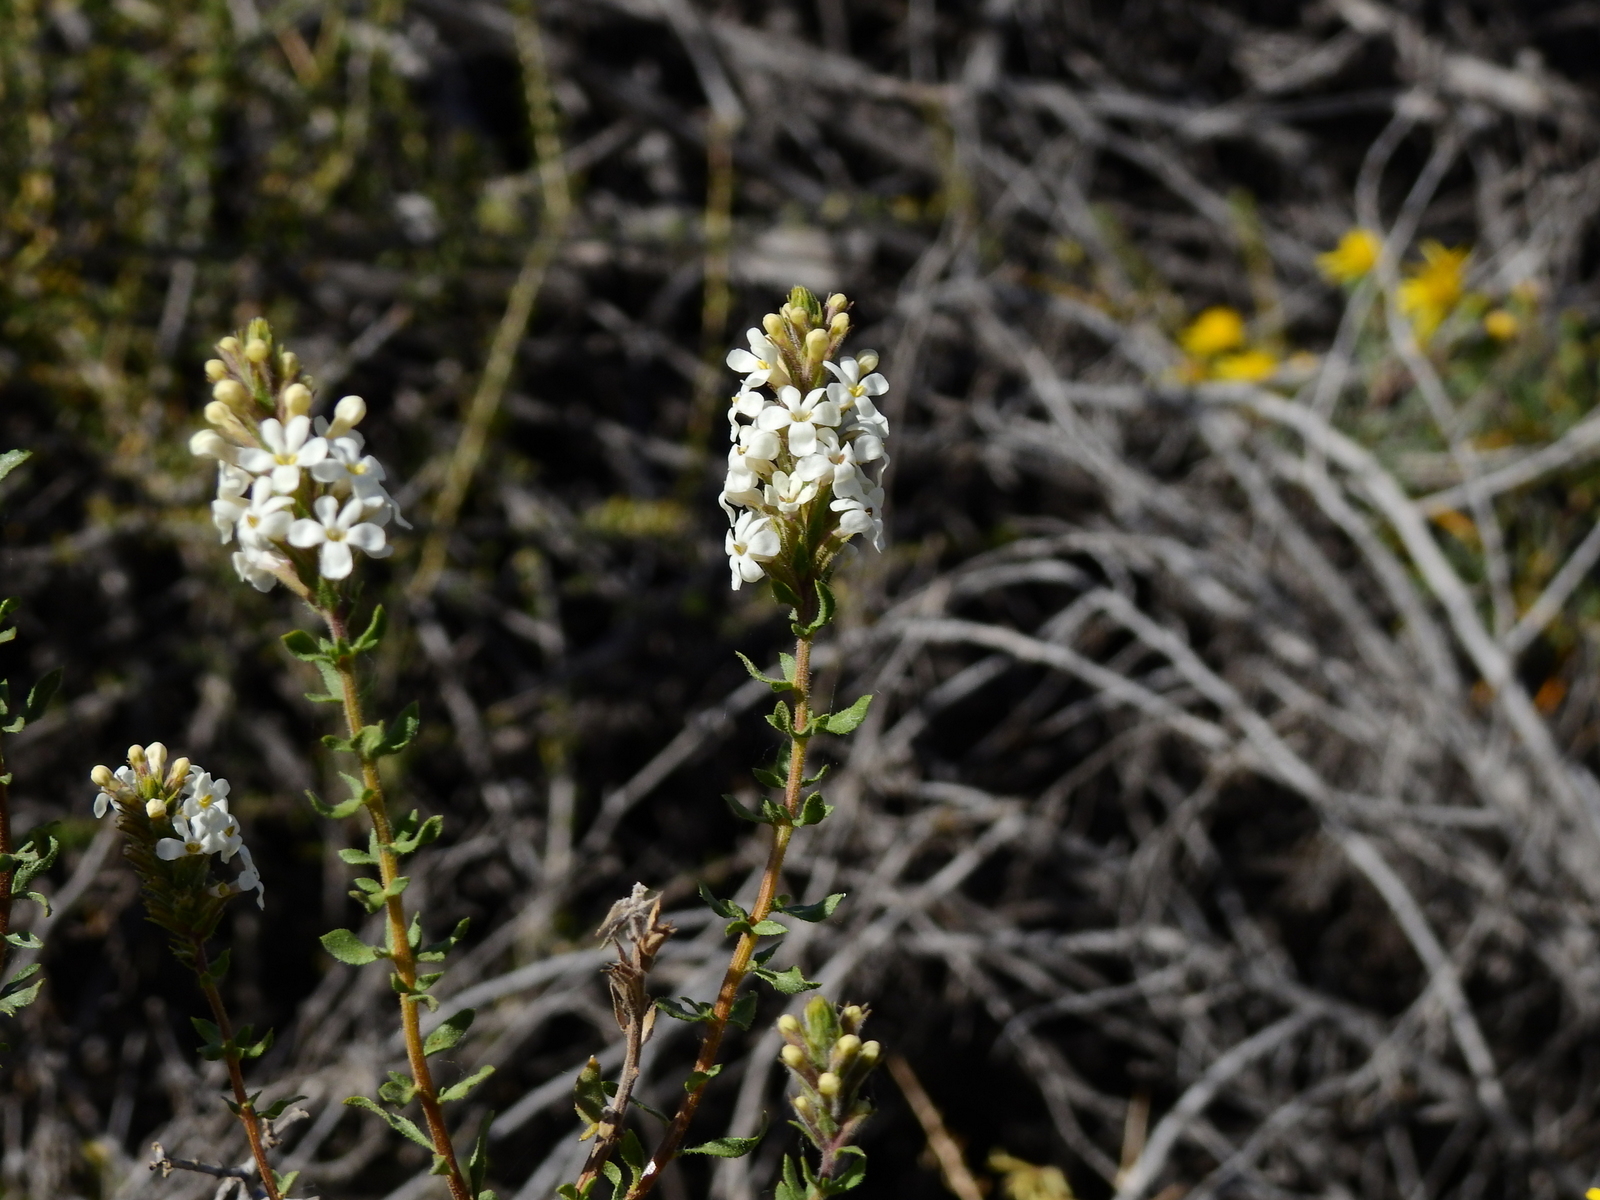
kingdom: Plantae
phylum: Tracheophyta
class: Magnoliopsida
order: Lamiales
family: Verbenaceae
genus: Mulguraea
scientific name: Mulguraea aspera
